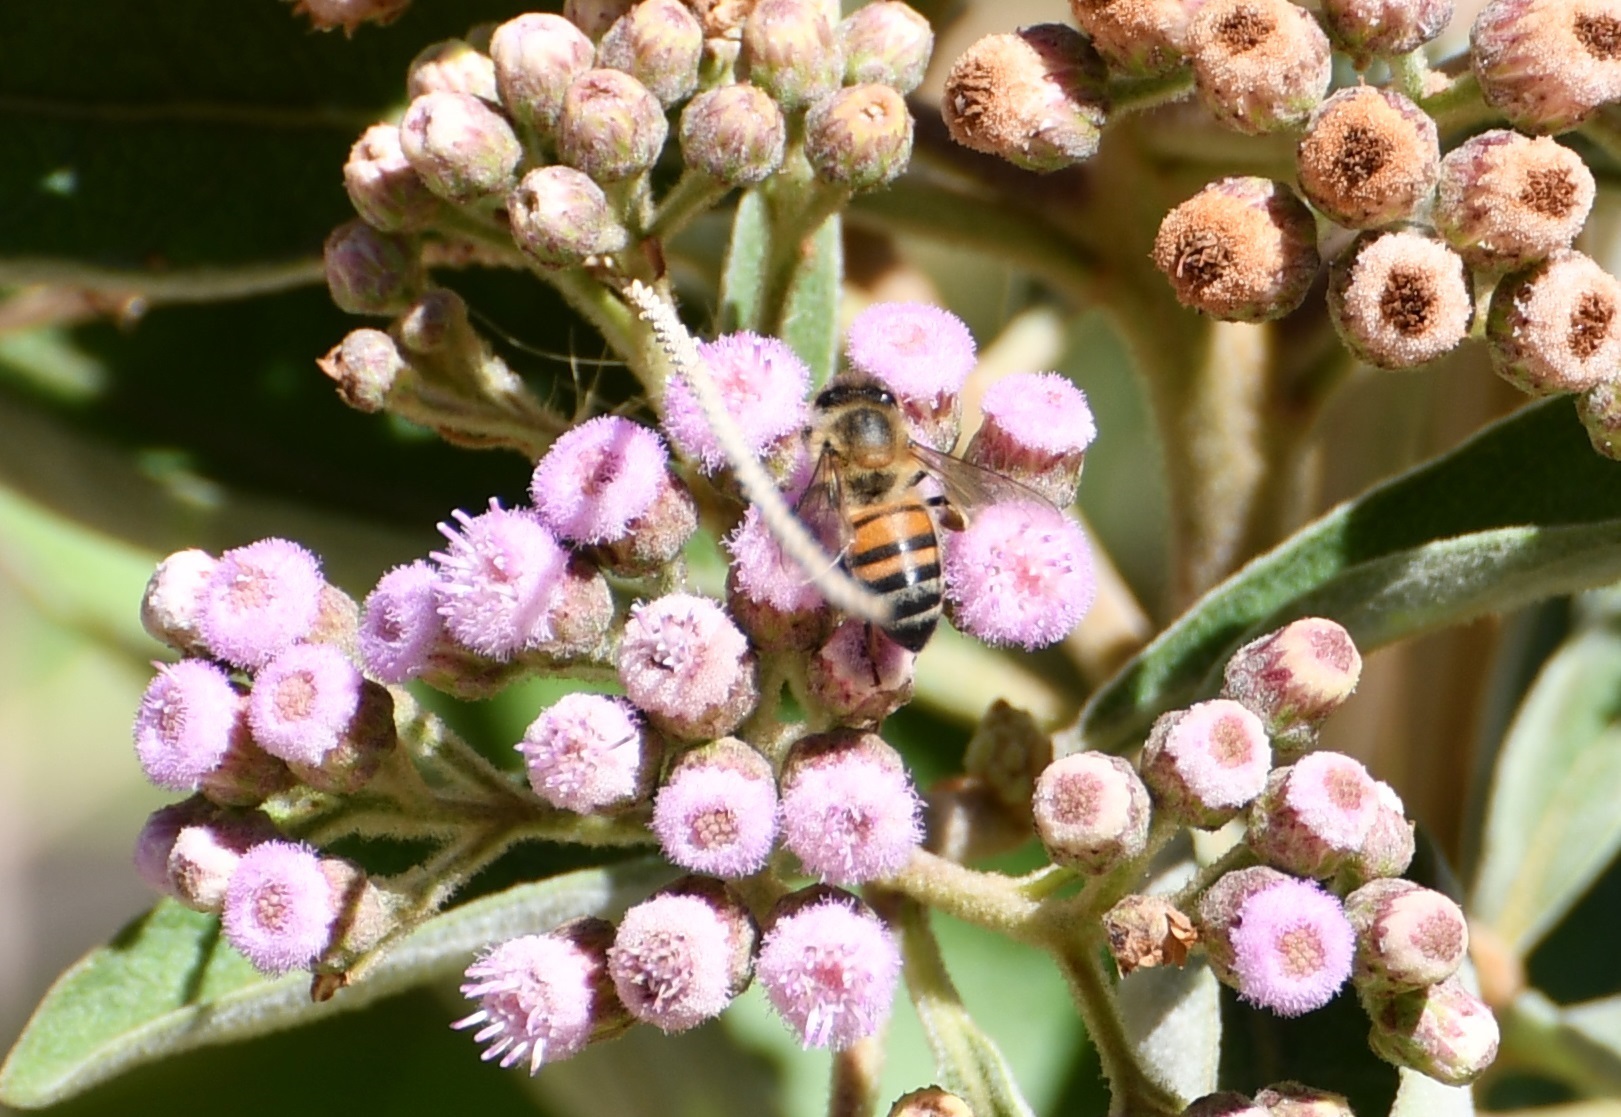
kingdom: Animalia
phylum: Arthropoda
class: Insecta
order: Hymenoptera
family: Apidae
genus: Apis
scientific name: Apis mellifera
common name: Honey bee
